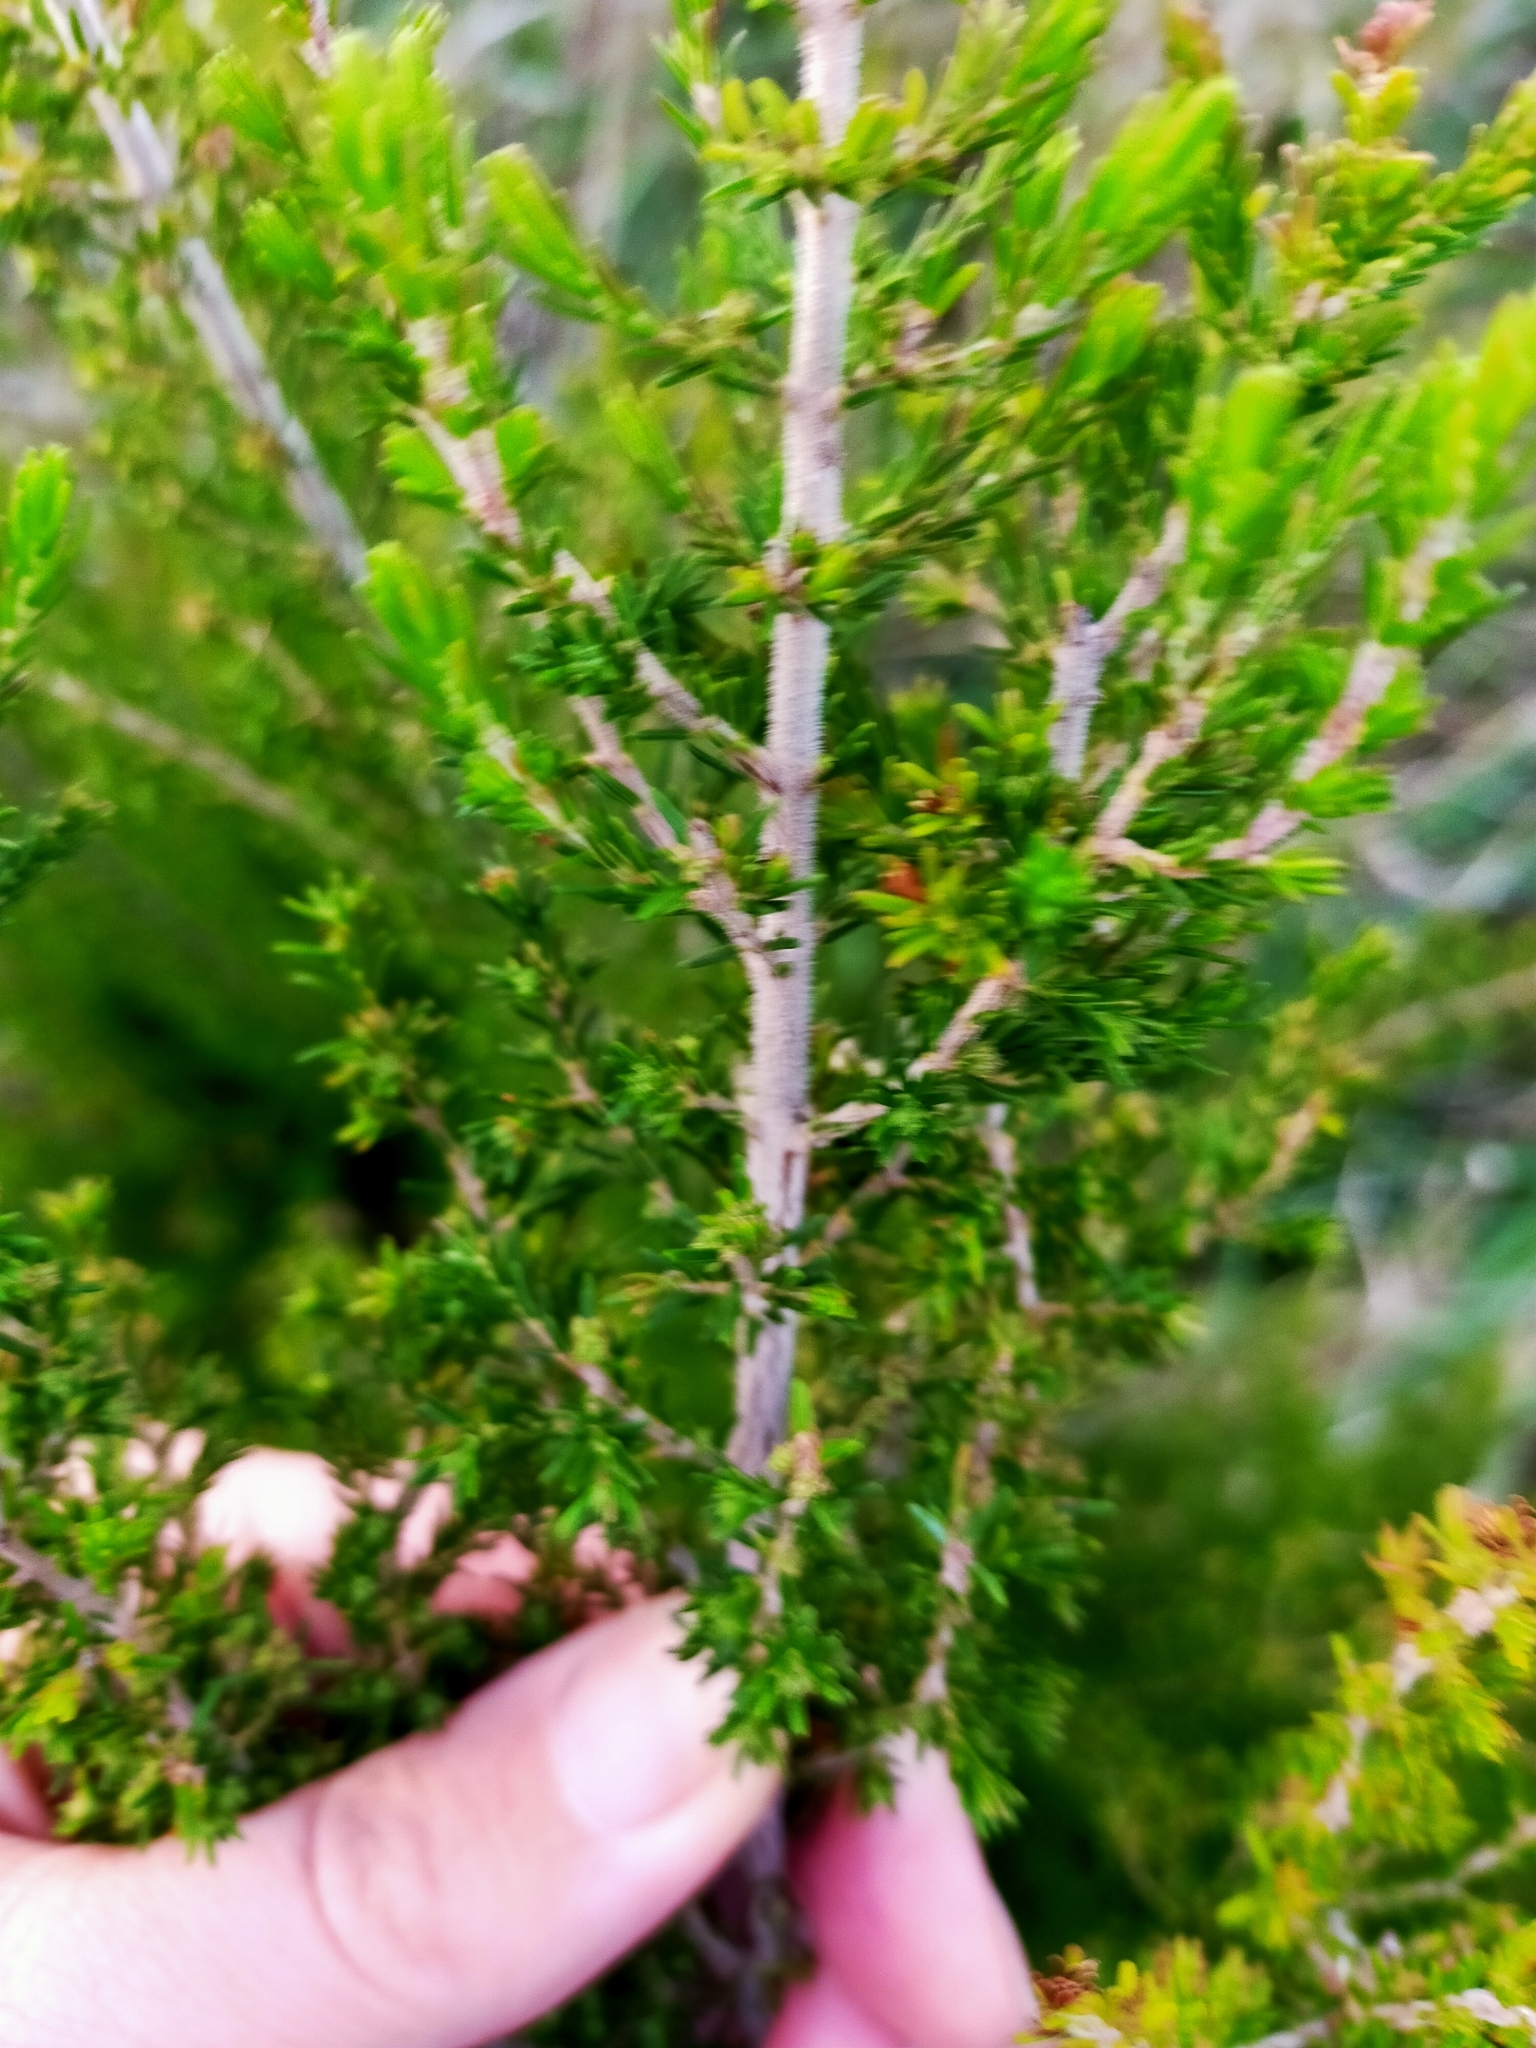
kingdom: Plantae
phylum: Tracheophyta
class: Magnoliopsida
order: Ericales
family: Ericaceae
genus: Erica
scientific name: Erica lusitanica
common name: Spanish heath
